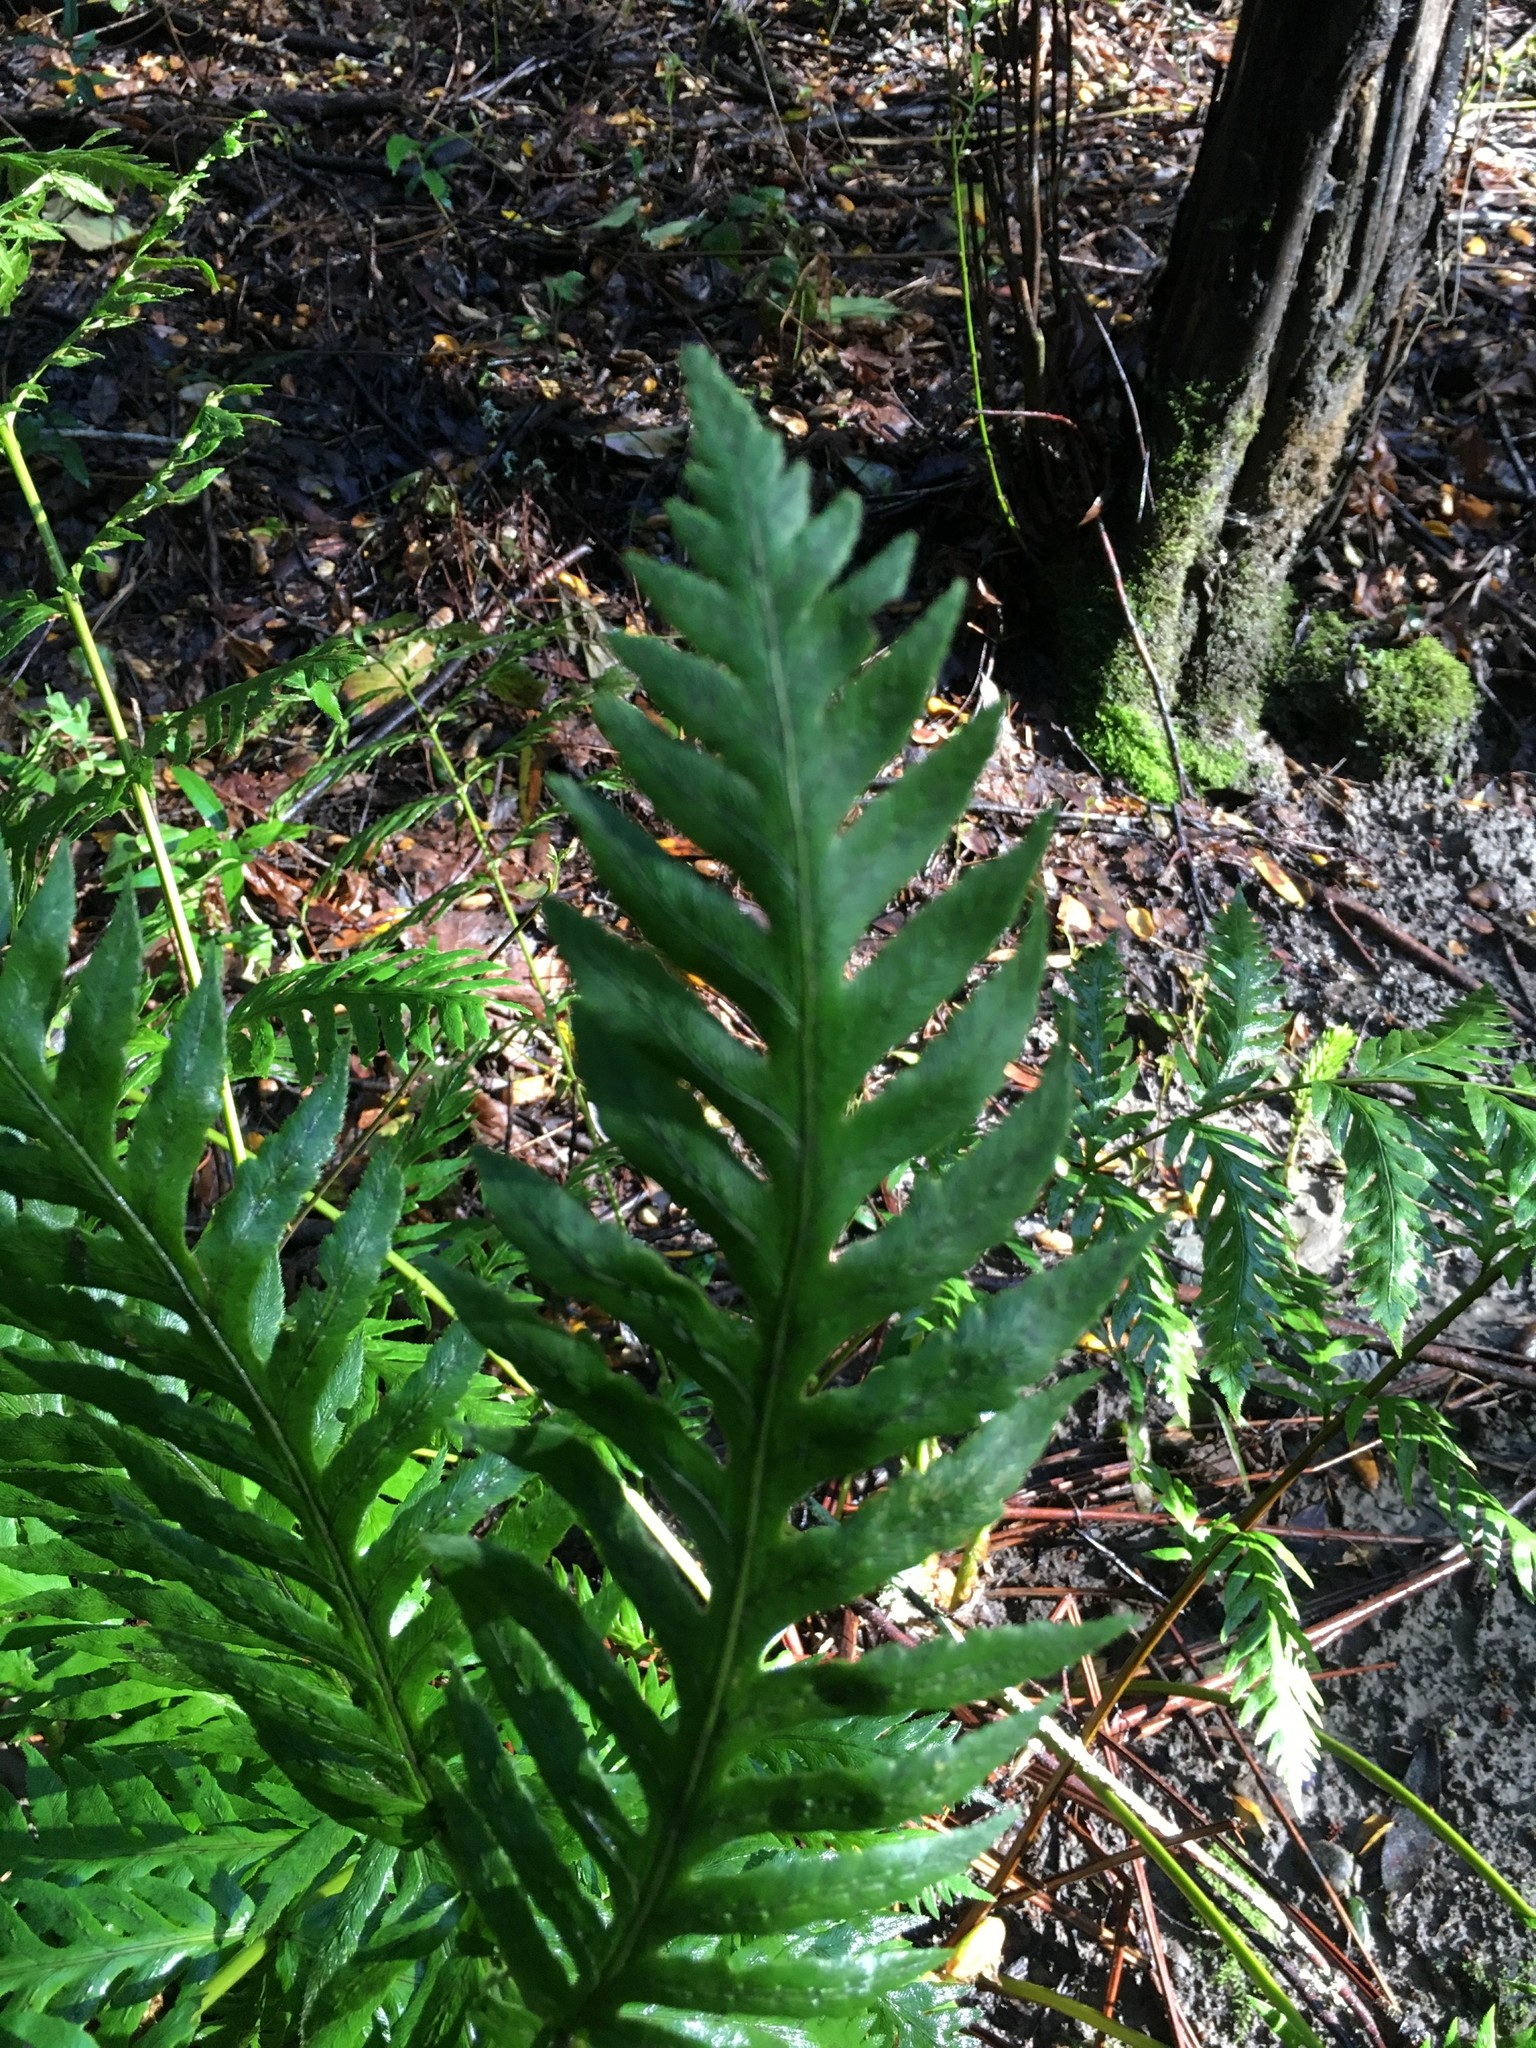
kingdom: Plantae
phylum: Tracheophyta
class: Polypodiopsida
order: Polypodiales
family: Blechnaceae
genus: Woodwardia
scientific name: Woodwardia fimbriata
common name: Giant chain fern
